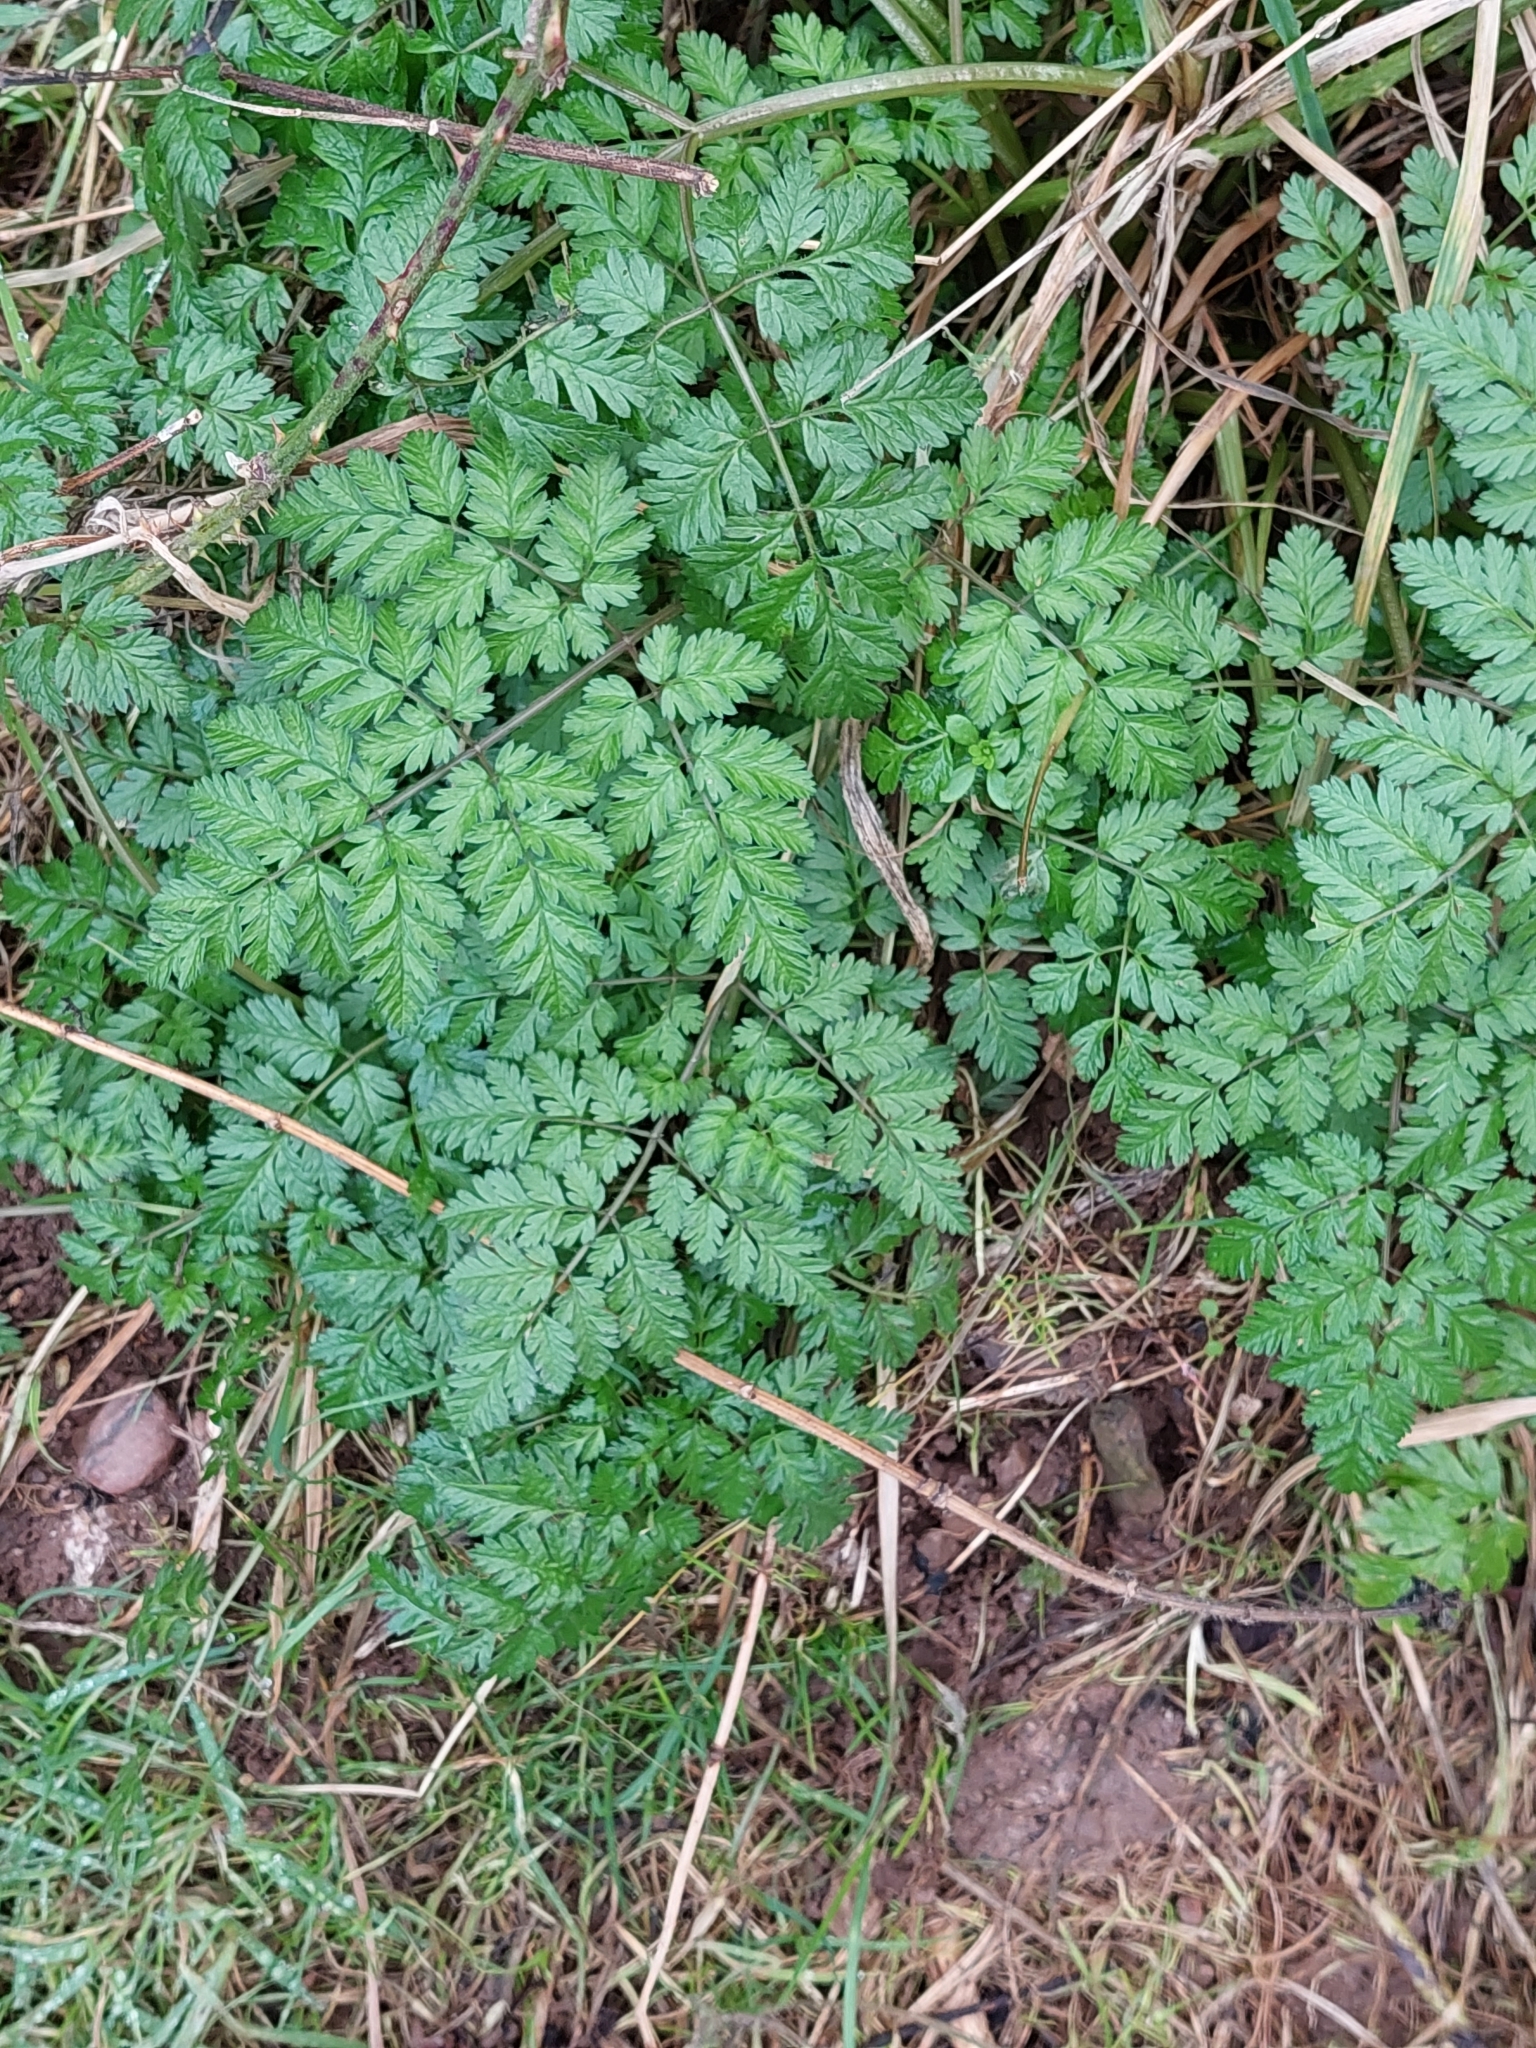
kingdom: Plantae
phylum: Tracheophyta
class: Magnoliopsida
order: Apiales
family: Apiaceae
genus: Anthriscus
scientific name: Anthriscus sylvestris
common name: Cow parsley
